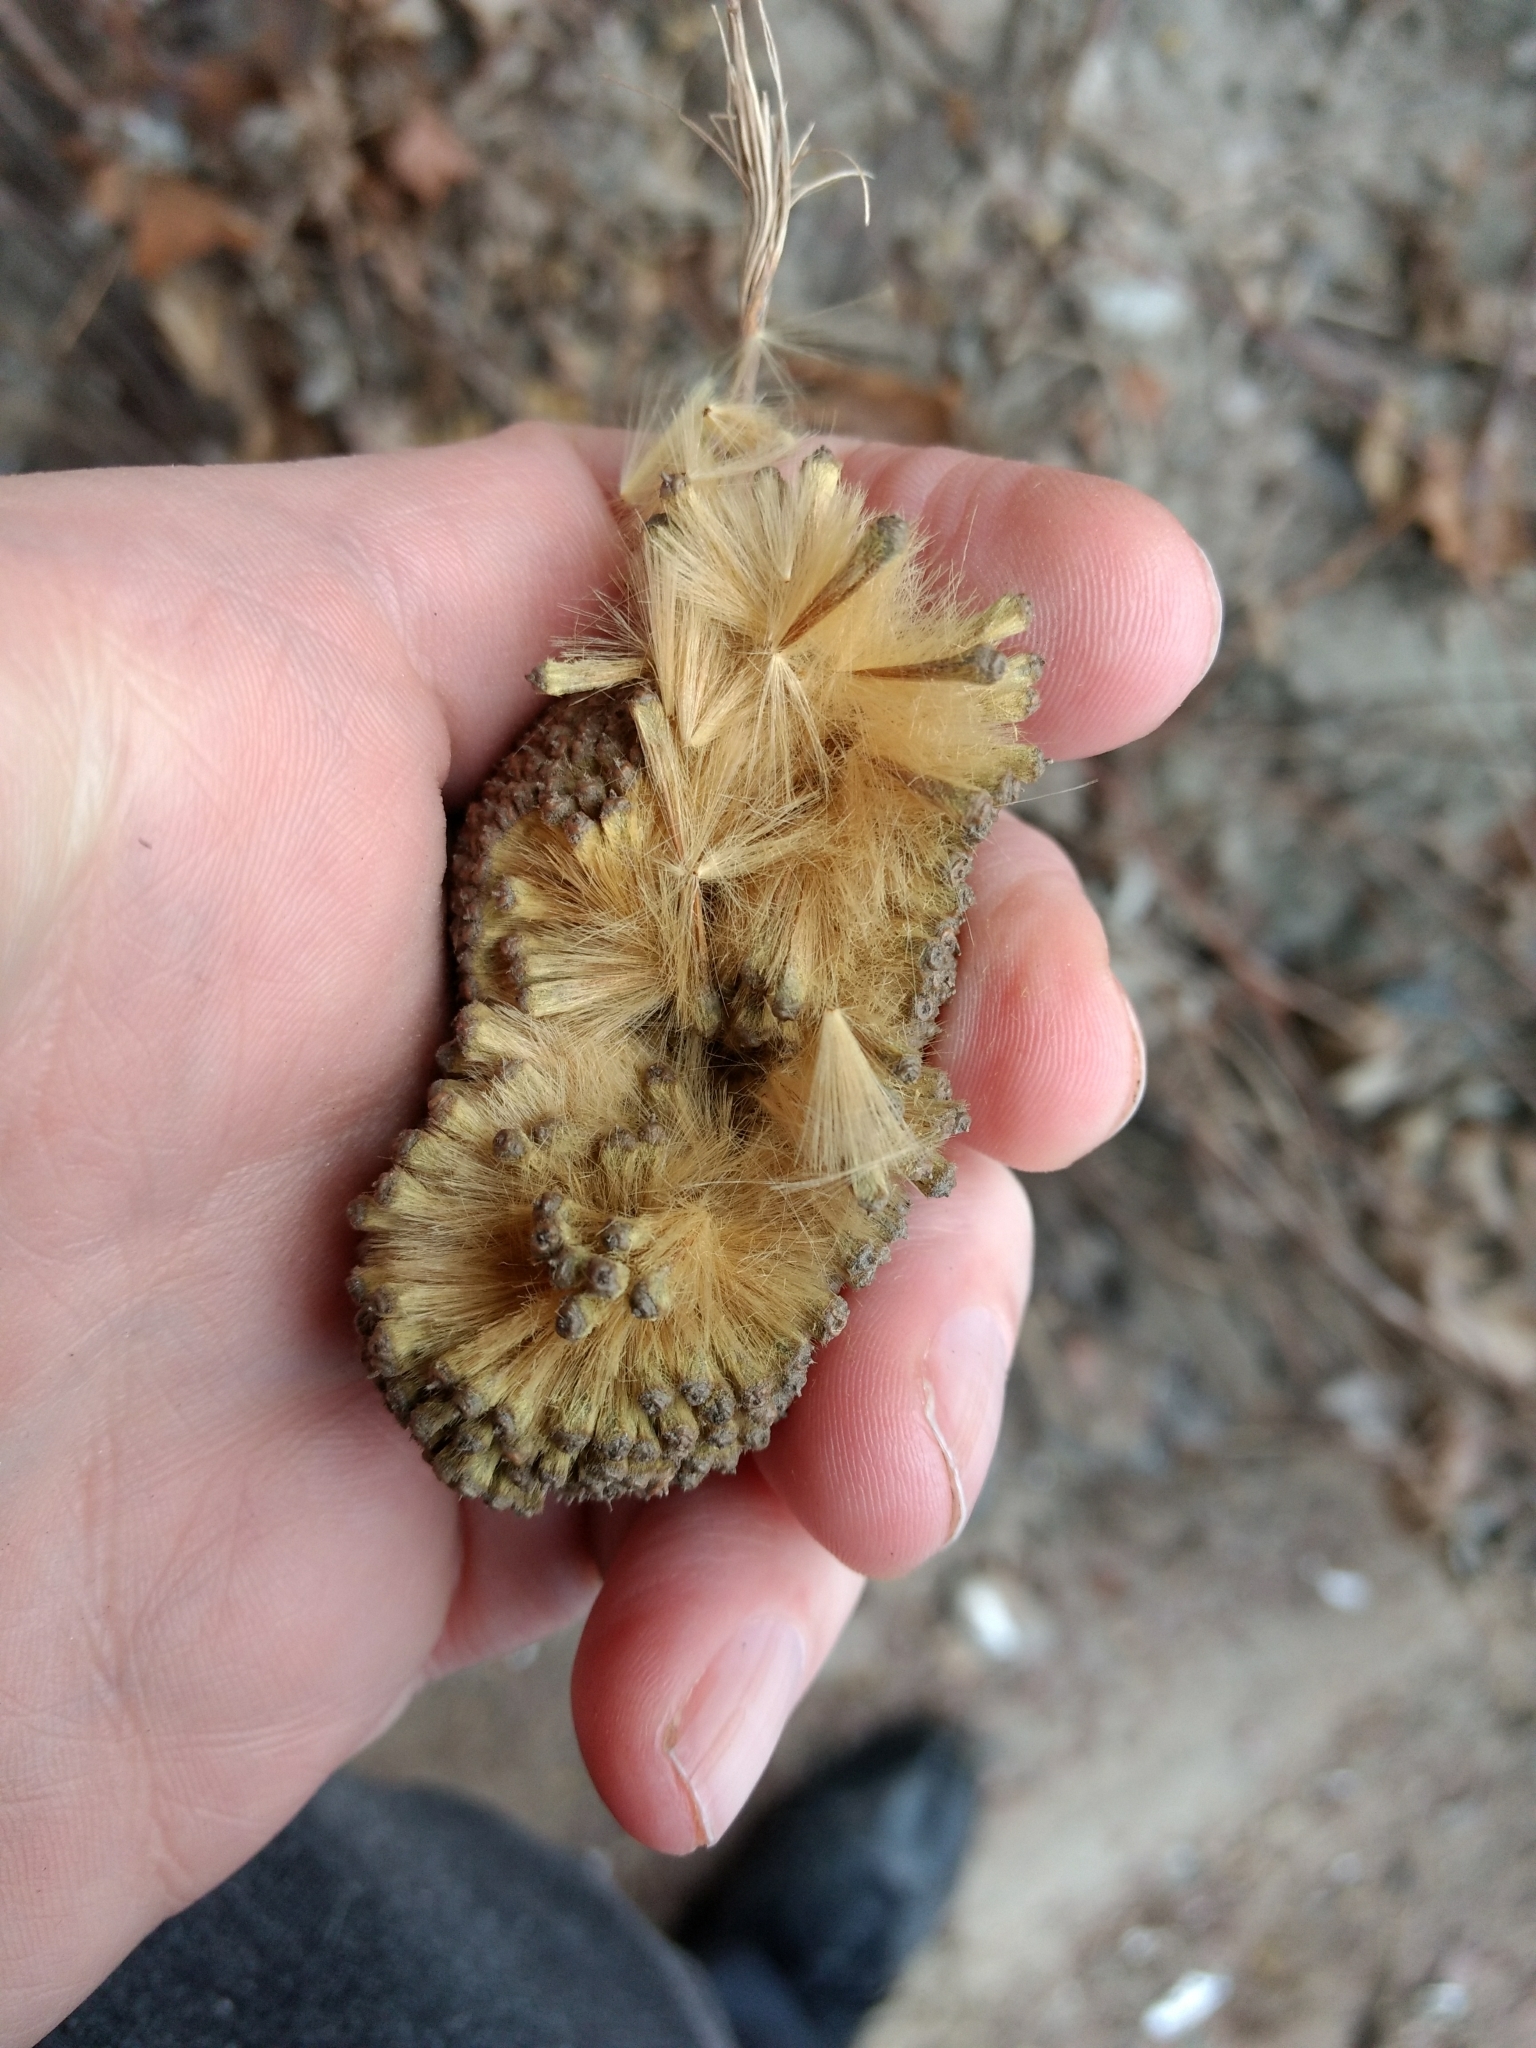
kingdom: Plantae
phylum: Tracheophyta
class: Magnoliopsida
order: Proteales
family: Platanaceae
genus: Platanus
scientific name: Platanus occidentalis
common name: American sycamore
